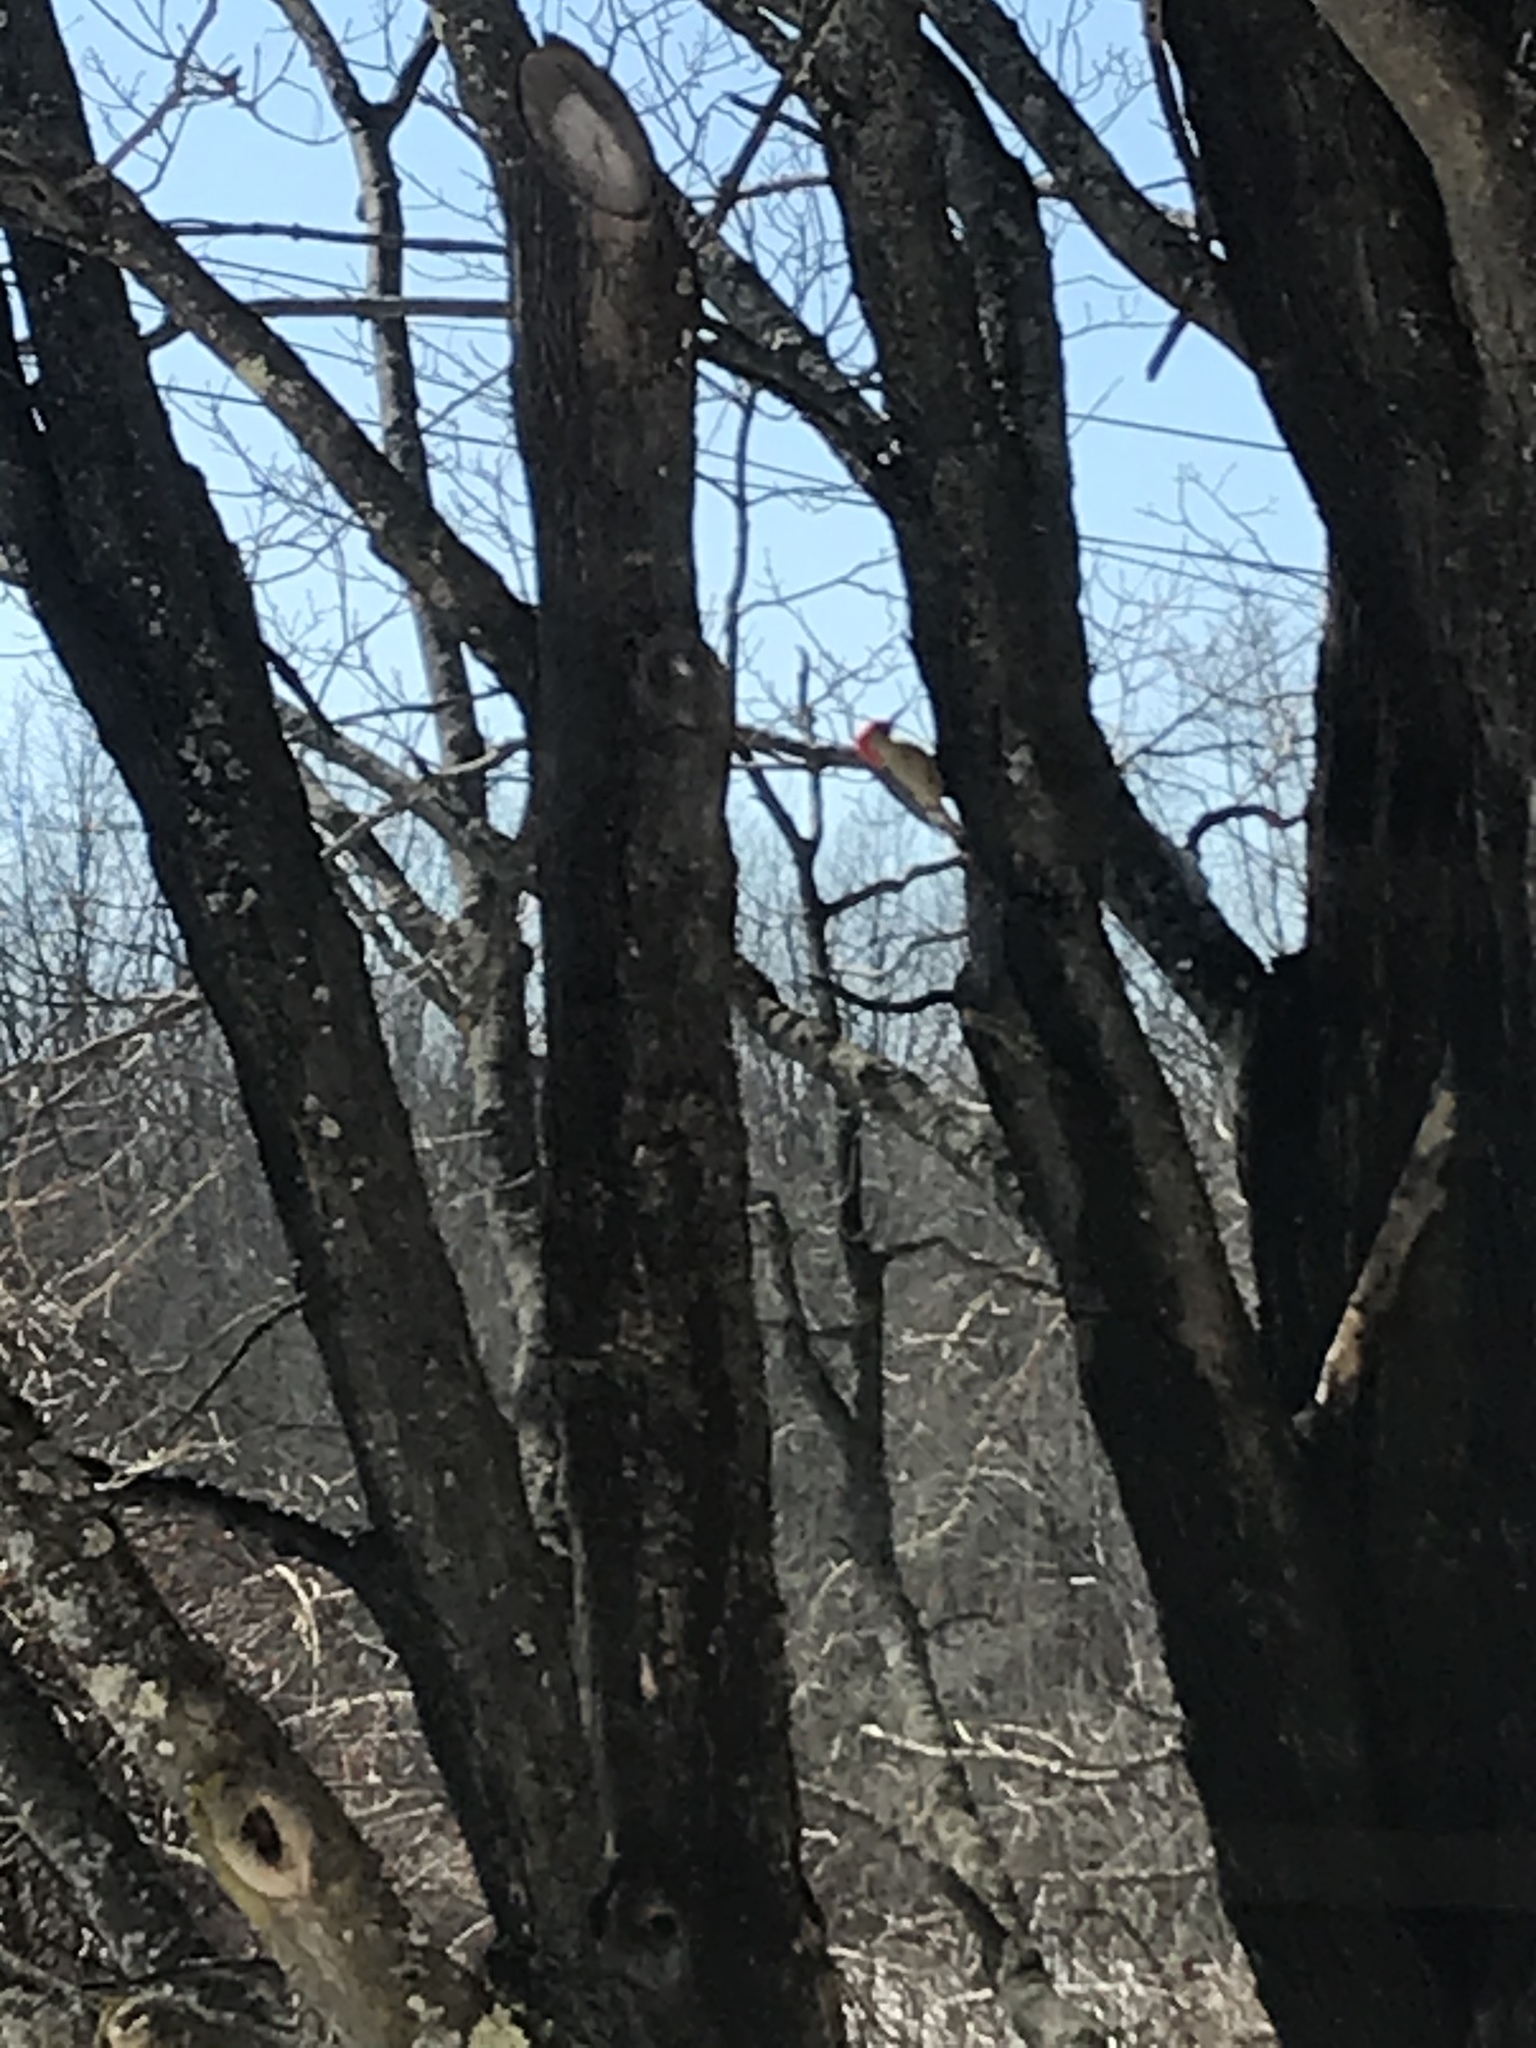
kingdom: Animalia
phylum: Chordata
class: Aves
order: Piciformes
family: Picidae
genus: Melanerpes
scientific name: Melanerpes carolinus
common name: Red-bellied woodpecker
